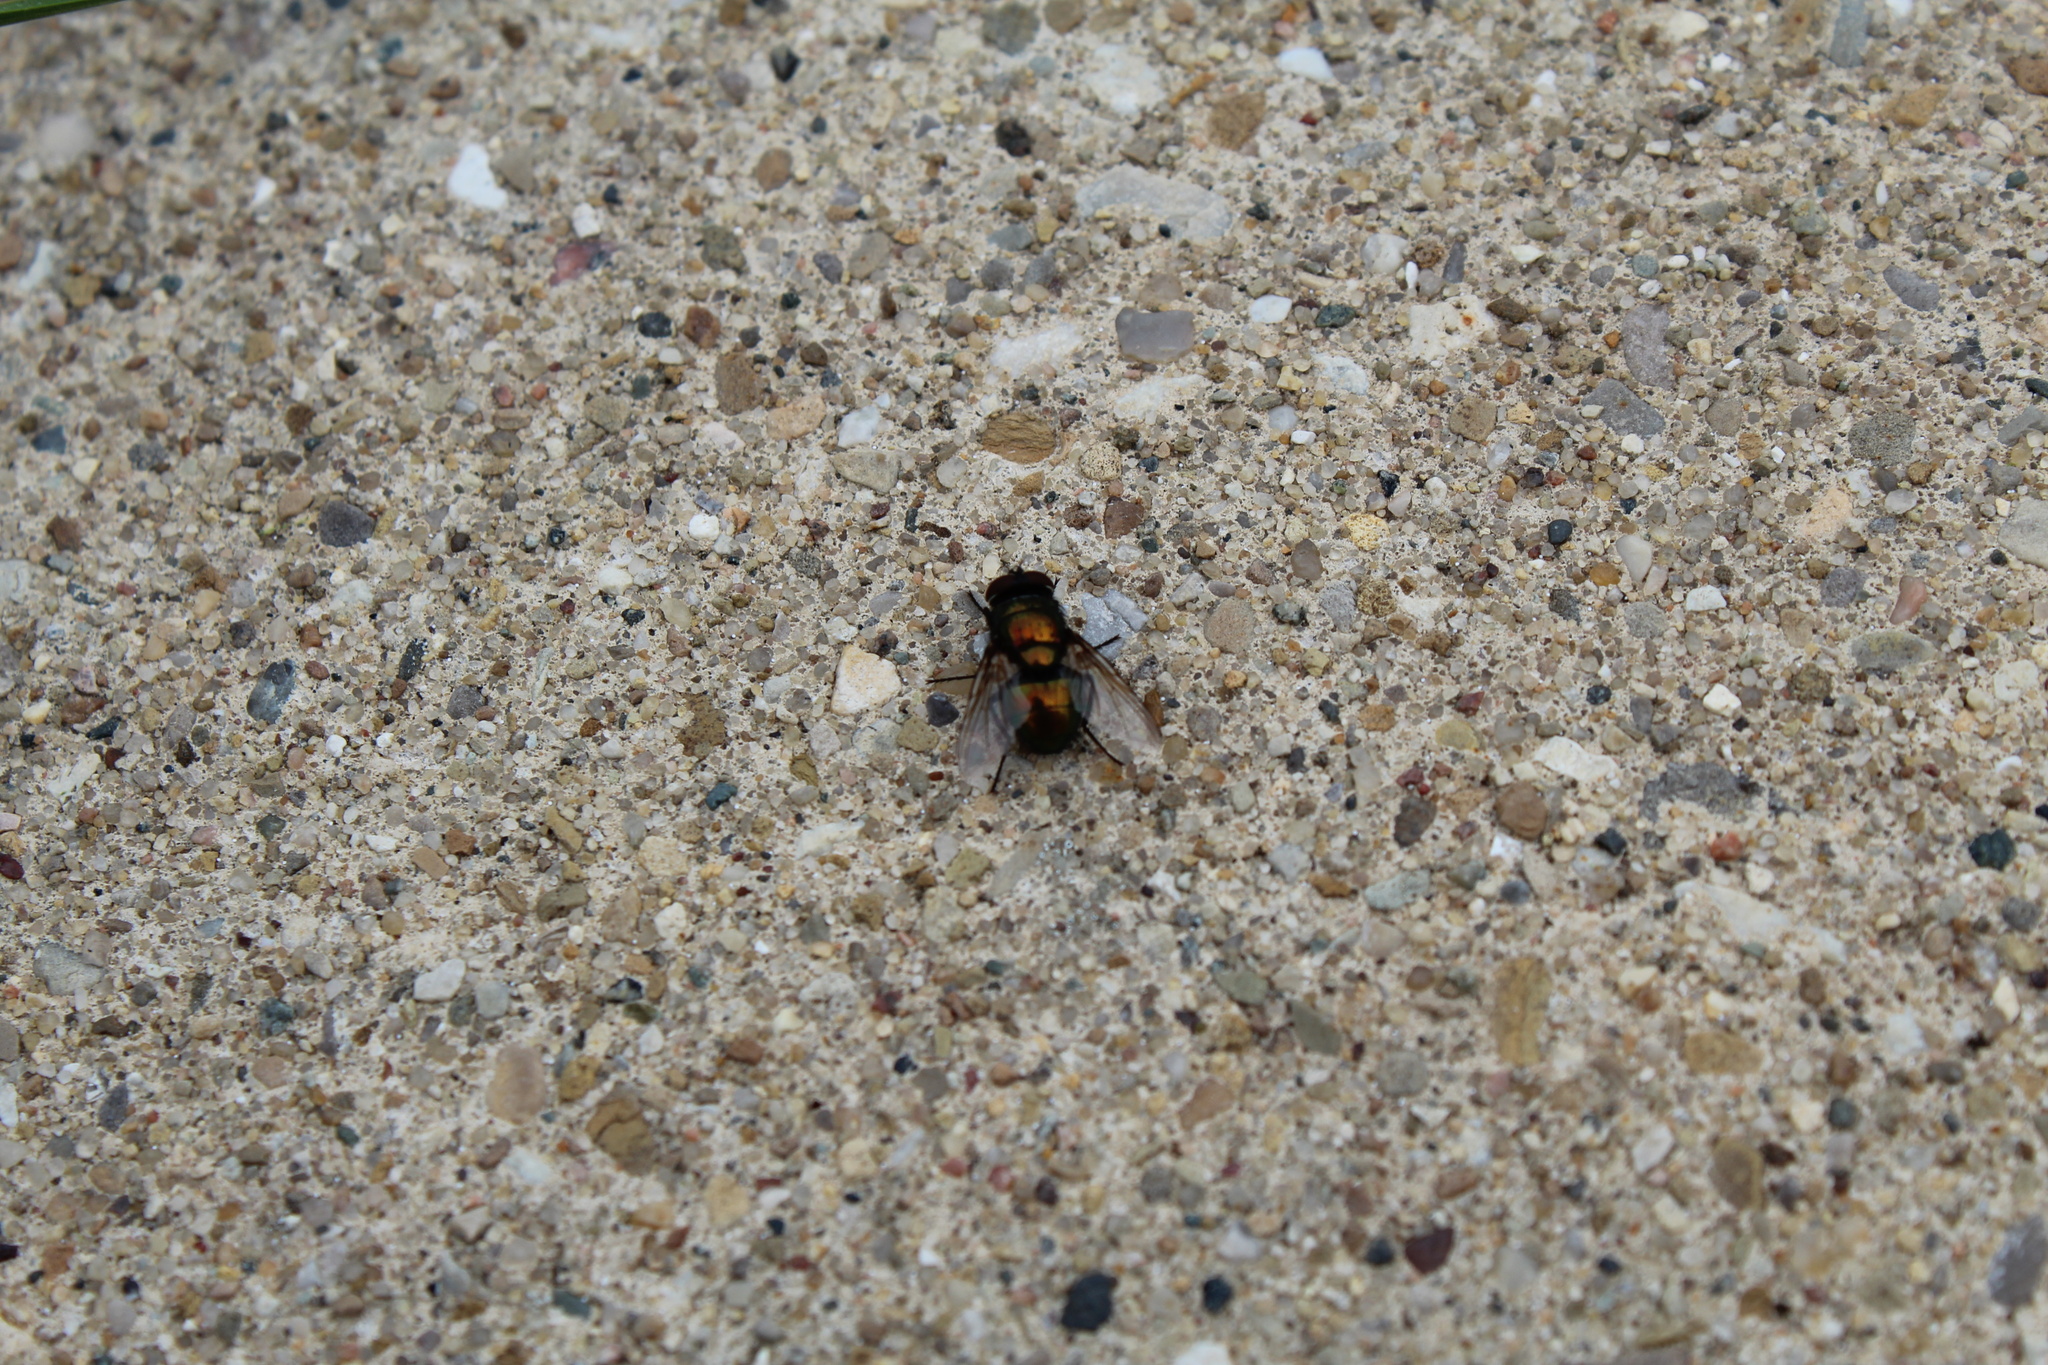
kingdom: Animalia
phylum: Arthropoda
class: Insecta
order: Diptera
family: Calliphoridae
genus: Lucilia
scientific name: Lucilia sericata
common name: Blow fly
